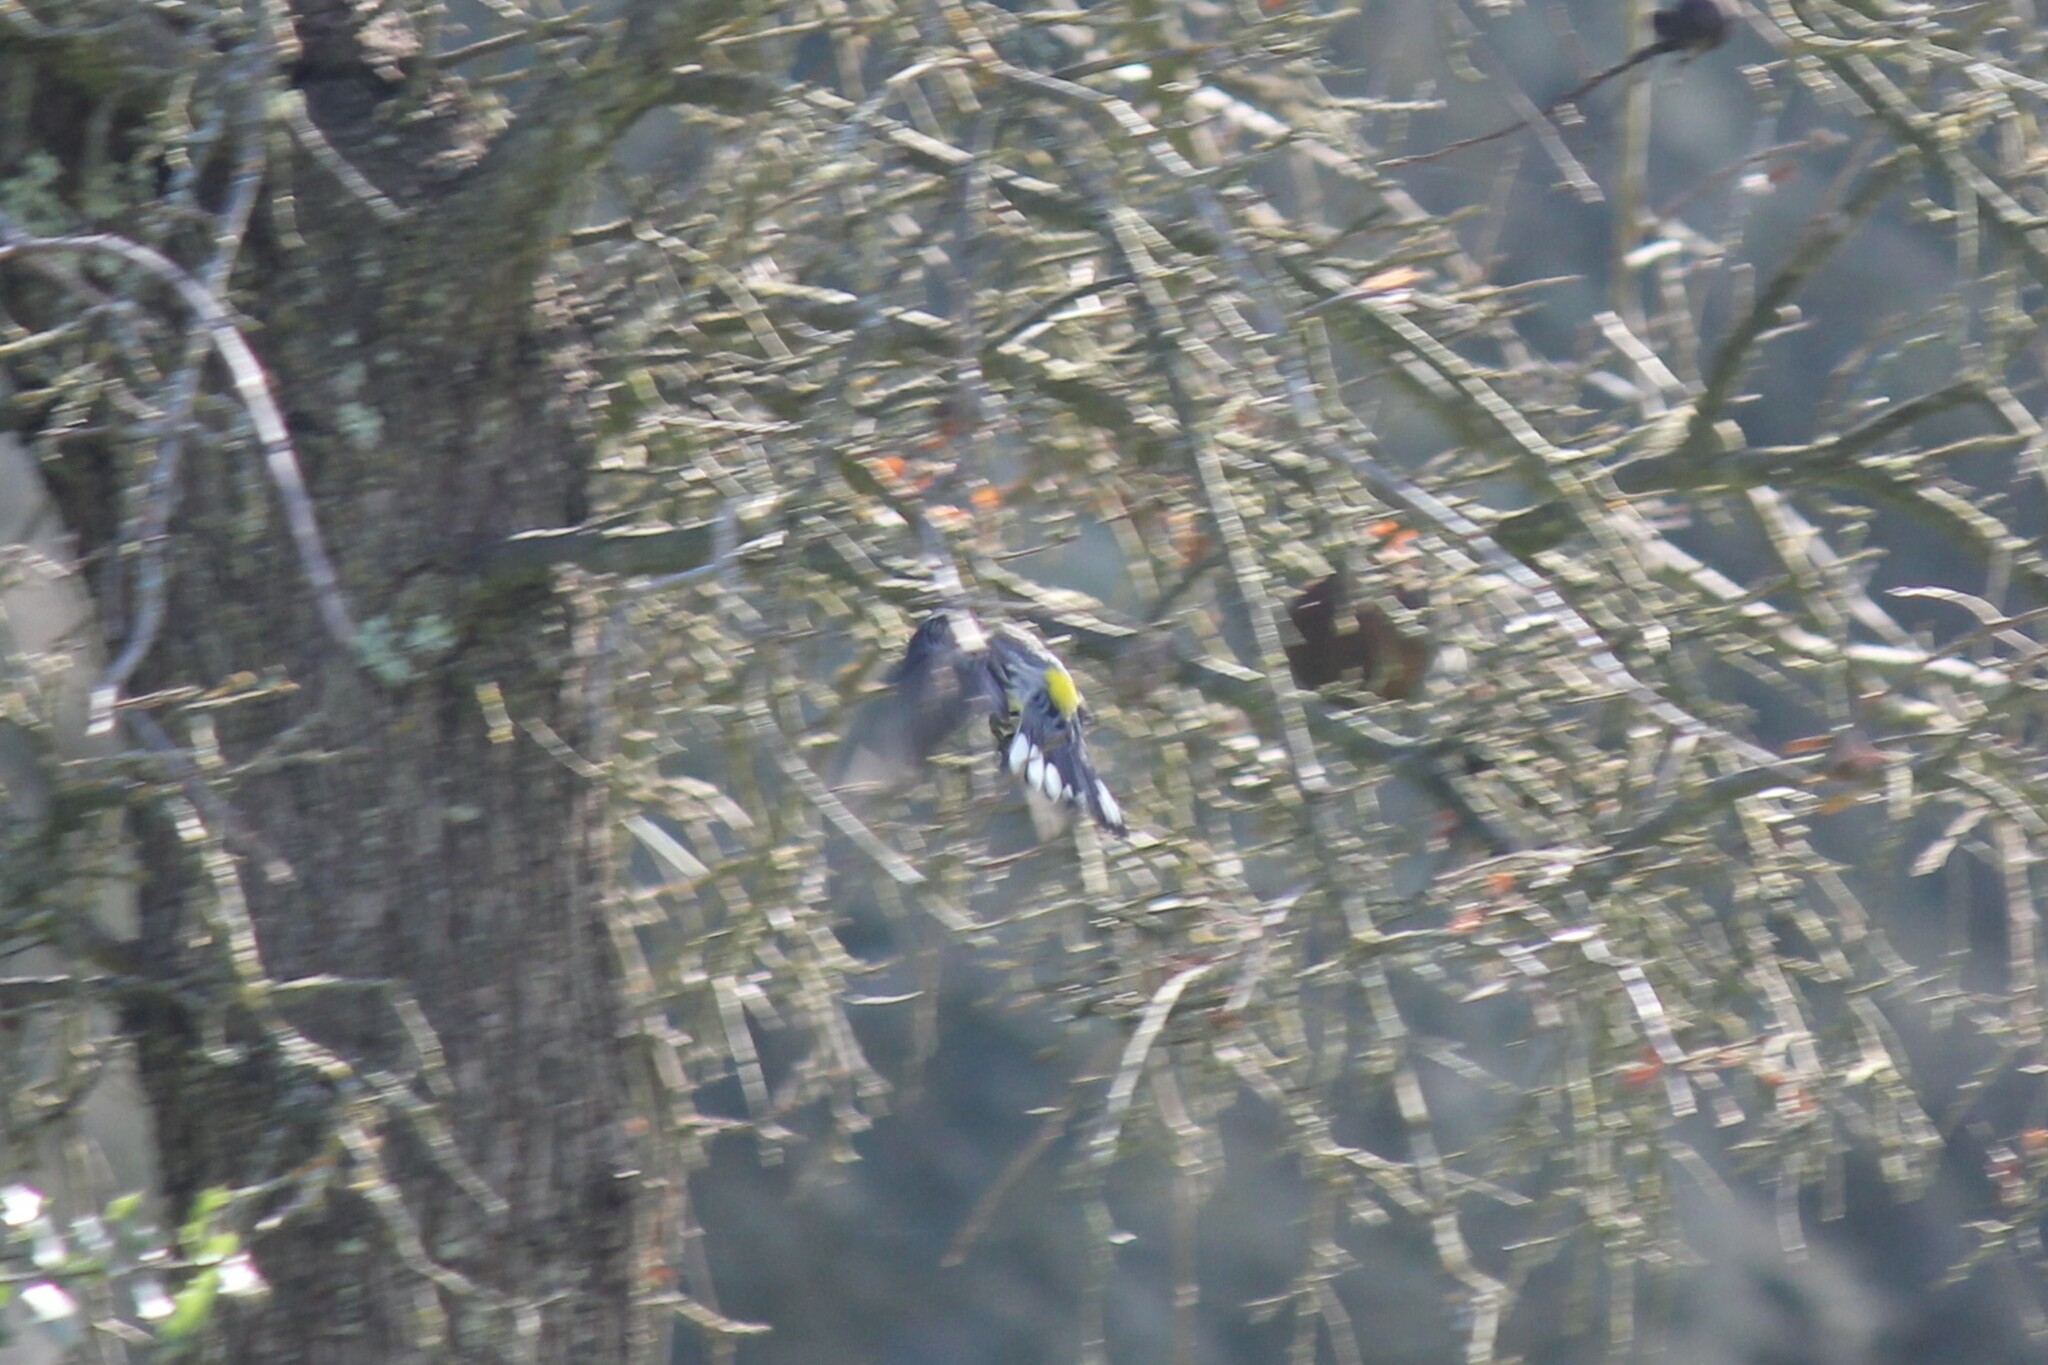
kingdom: Animalia
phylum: Chordata
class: Aves
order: Passeriformes
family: Parulidae
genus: Setophaga
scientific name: Setophaga coronata
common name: Myrtle warbler
